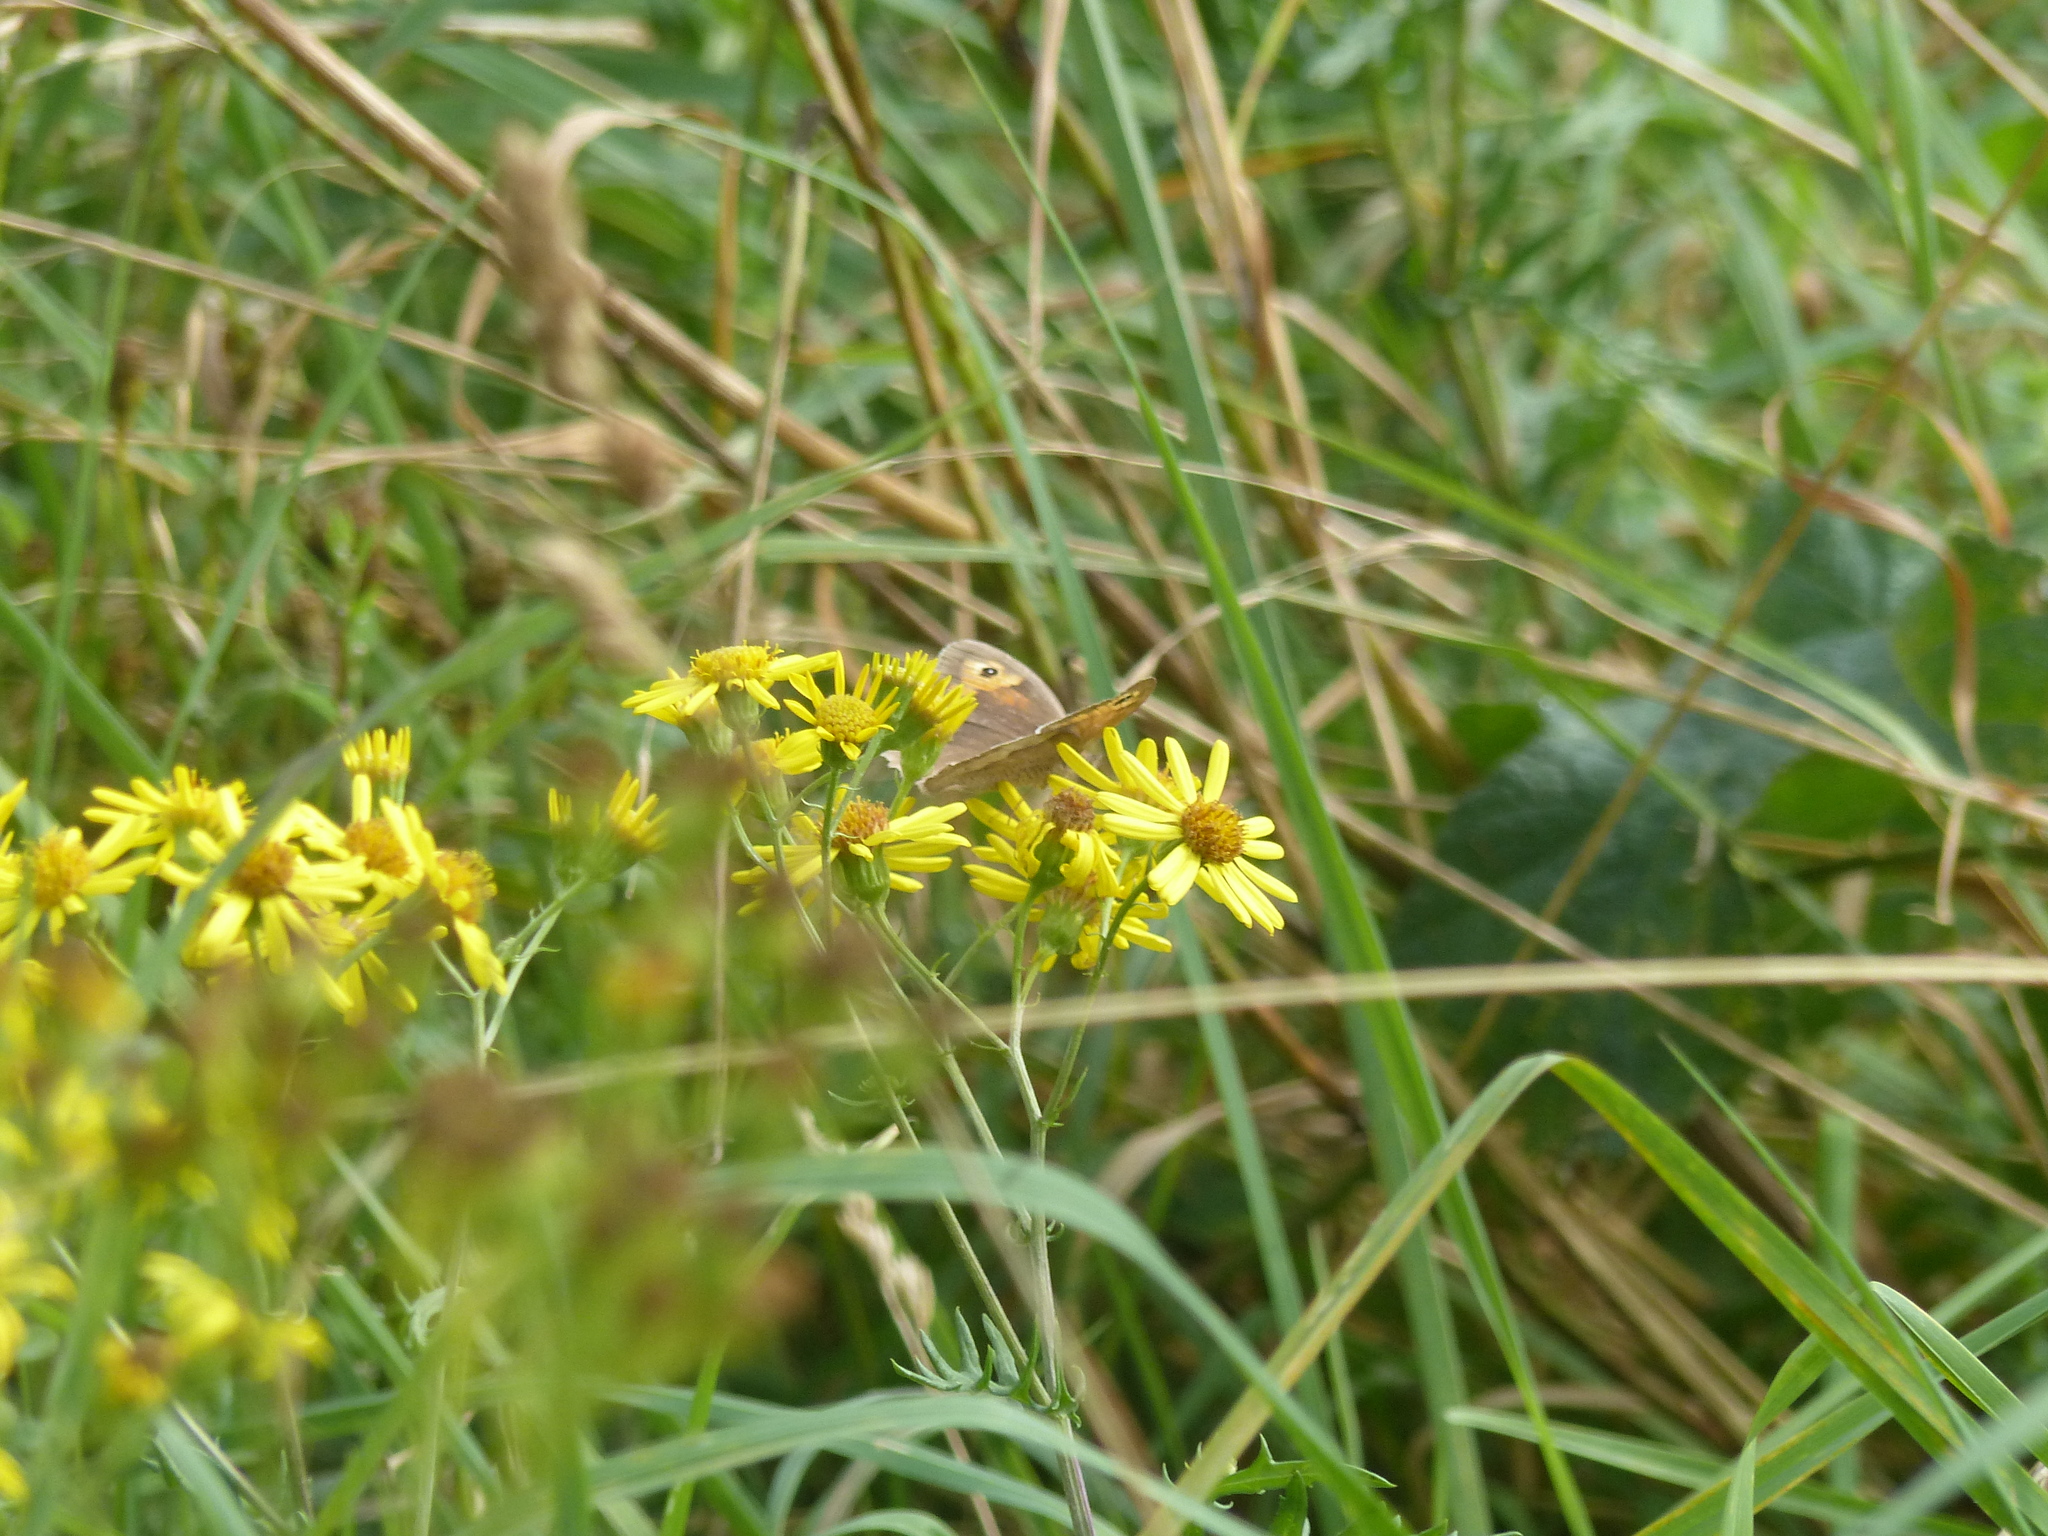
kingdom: Animalia
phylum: Arthropoda
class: Insecta
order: Lepidoptera
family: Nymphalidae
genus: Maniola
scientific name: Maniola jurtina
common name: Meadow brown
